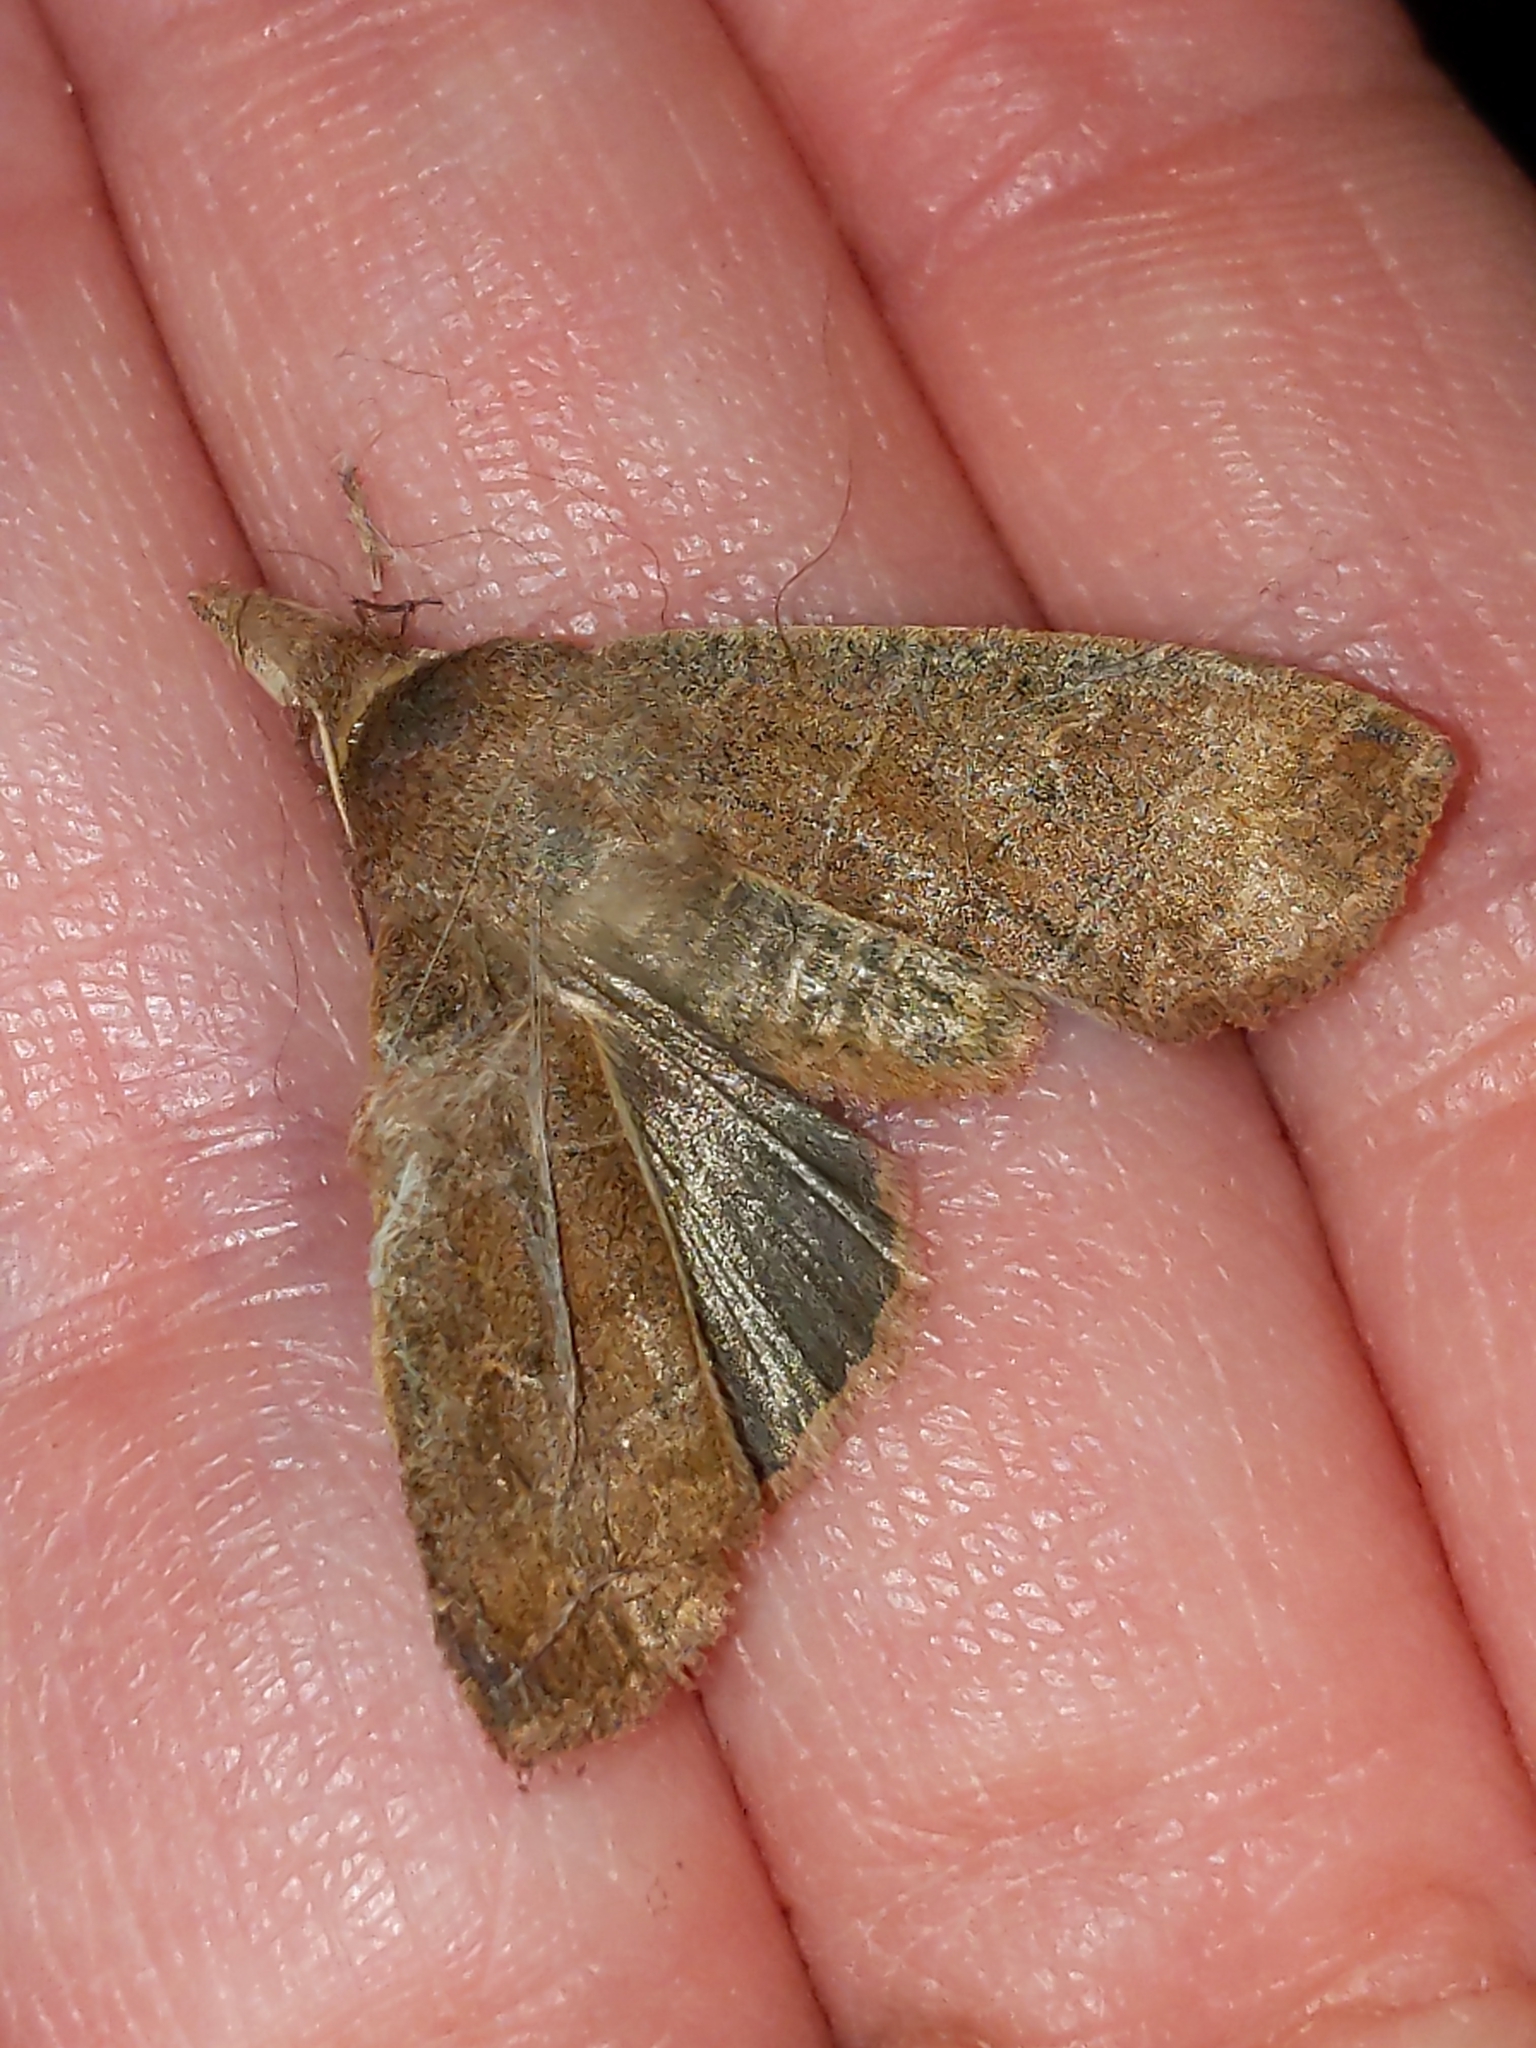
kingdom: Animalia
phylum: Arthropoda
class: Insecta
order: Lepidoptera
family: Noctuidae
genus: Eupsilia
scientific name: Eupsilia morrisoni
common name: Morrison's sallow
